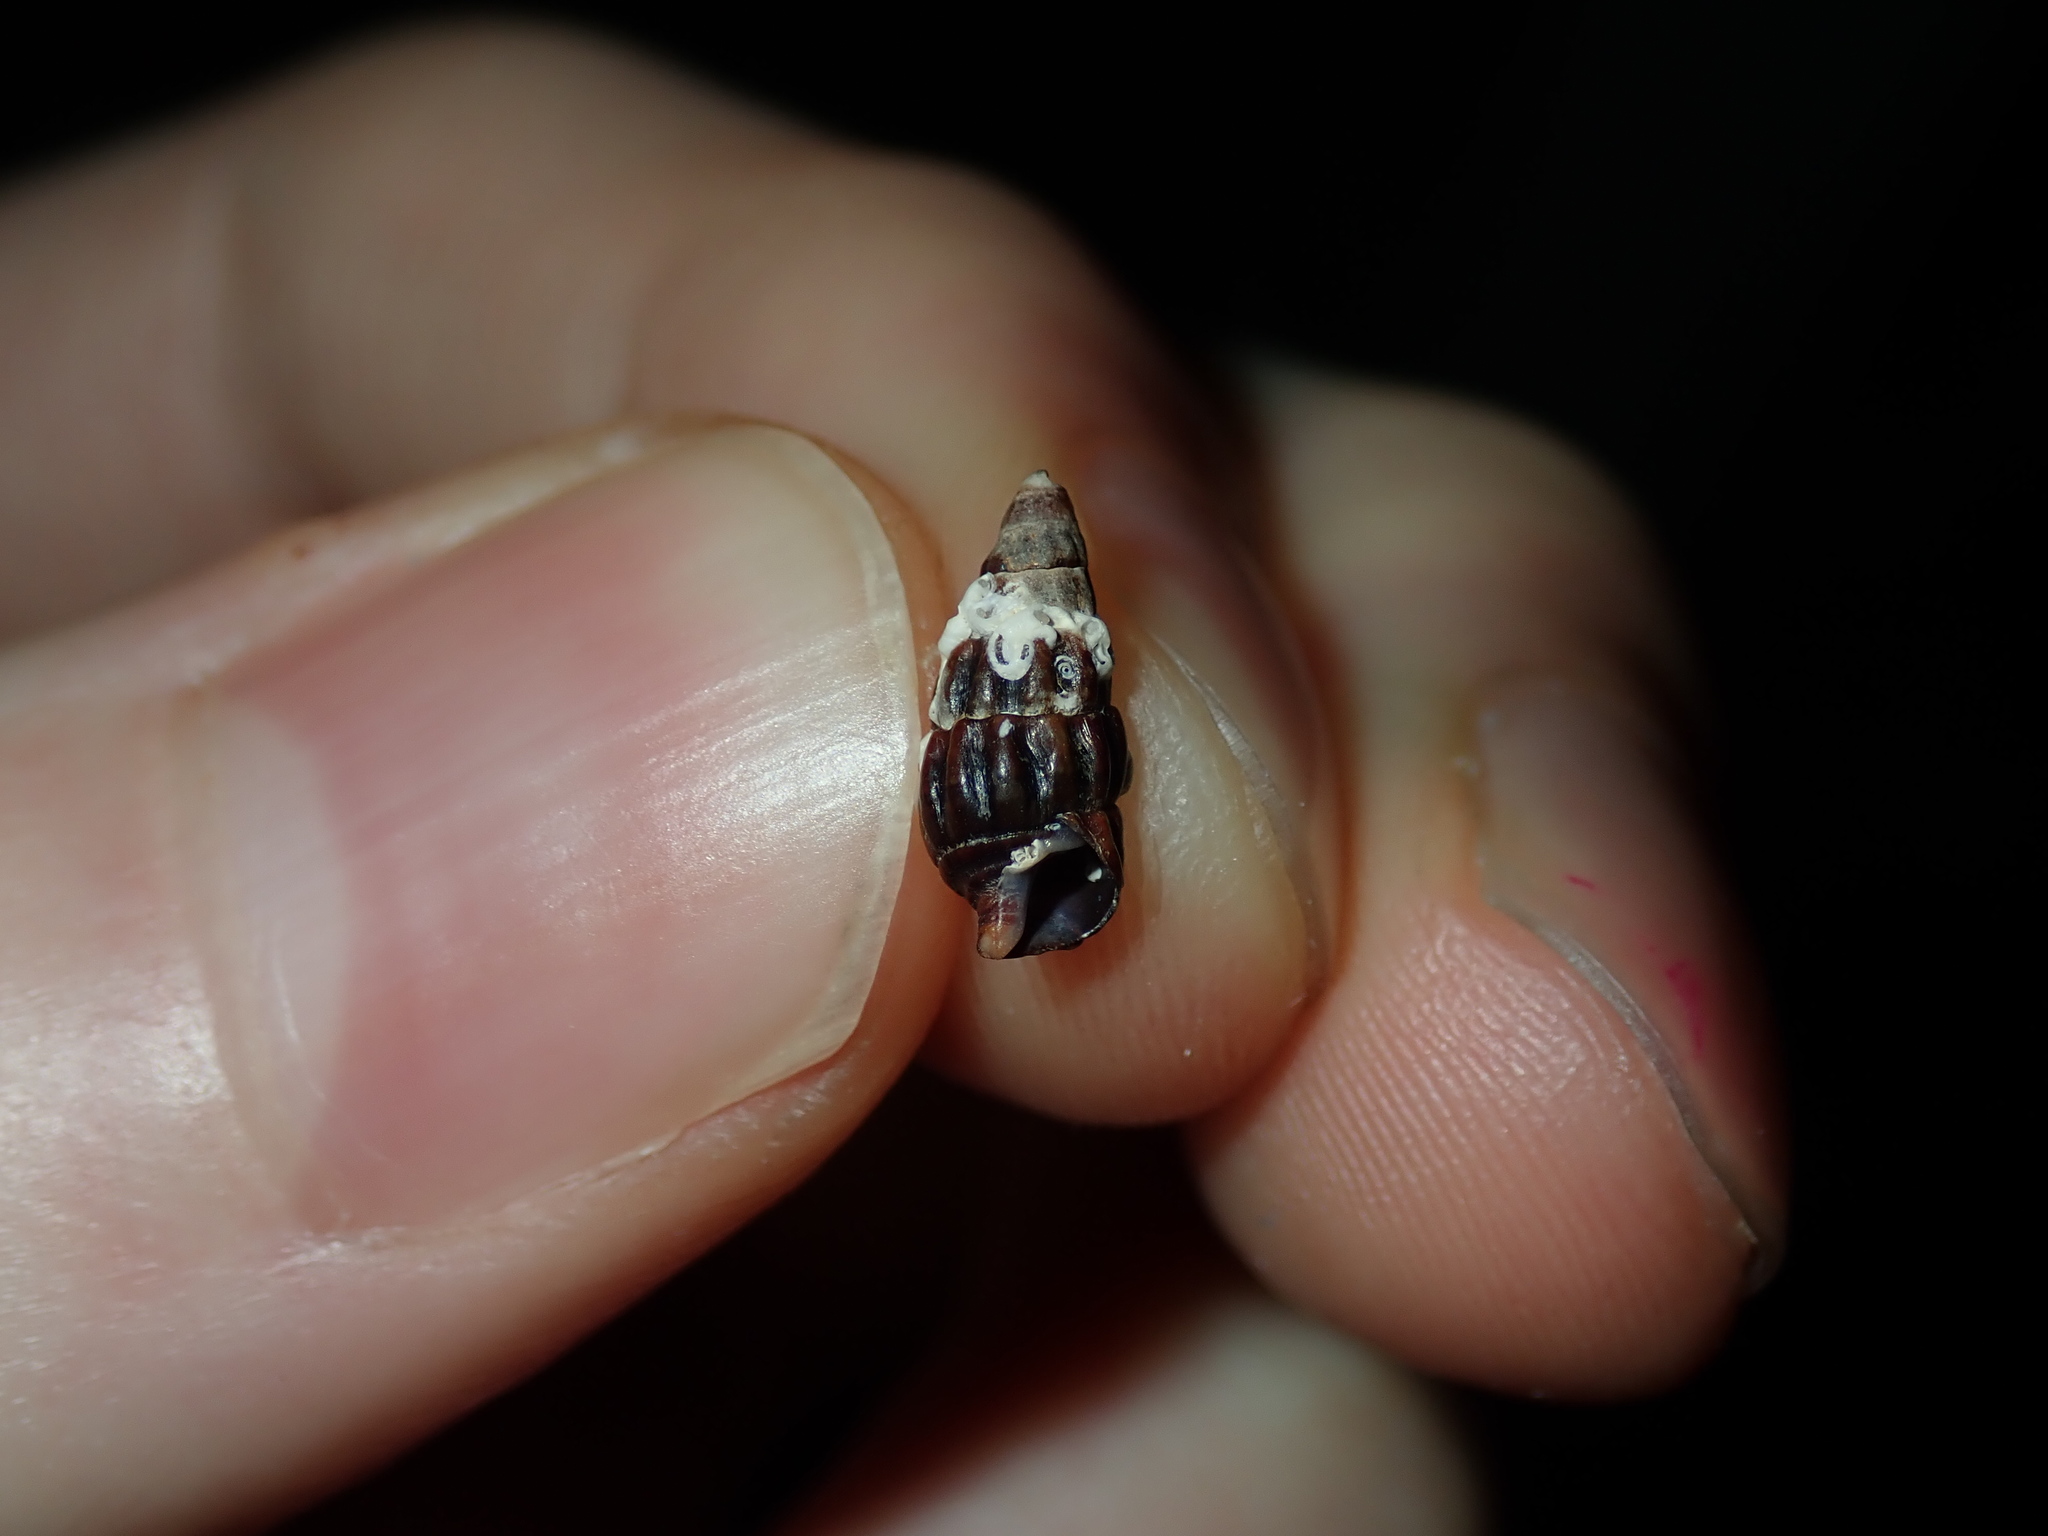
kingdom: Animalia
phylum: Mollusca
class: Gastropoda
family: Batillariidae
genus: Zeacumantus
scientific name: Zeacumantus subcarinatus
